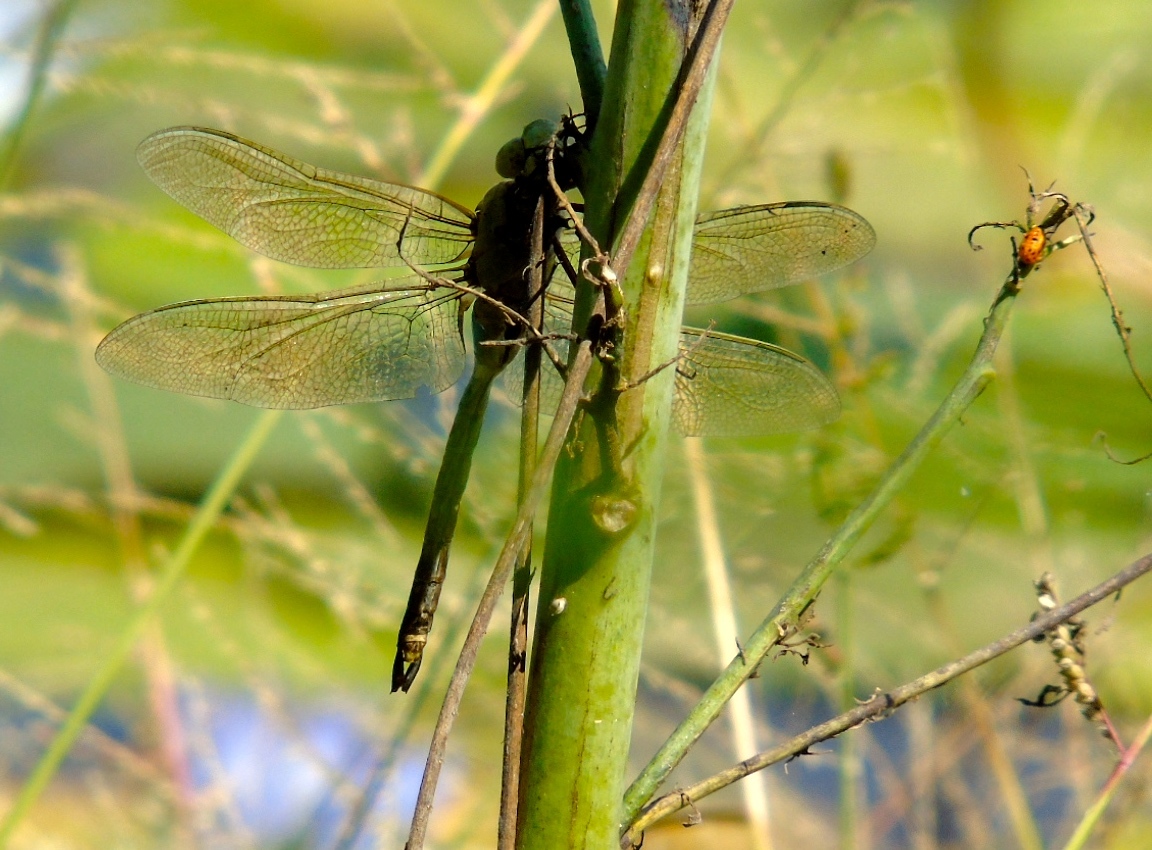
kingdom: Animalia
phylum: Arthropoda
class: Insecta
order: Odonata
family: Aeshnidae
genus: Anax
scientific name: Anax
